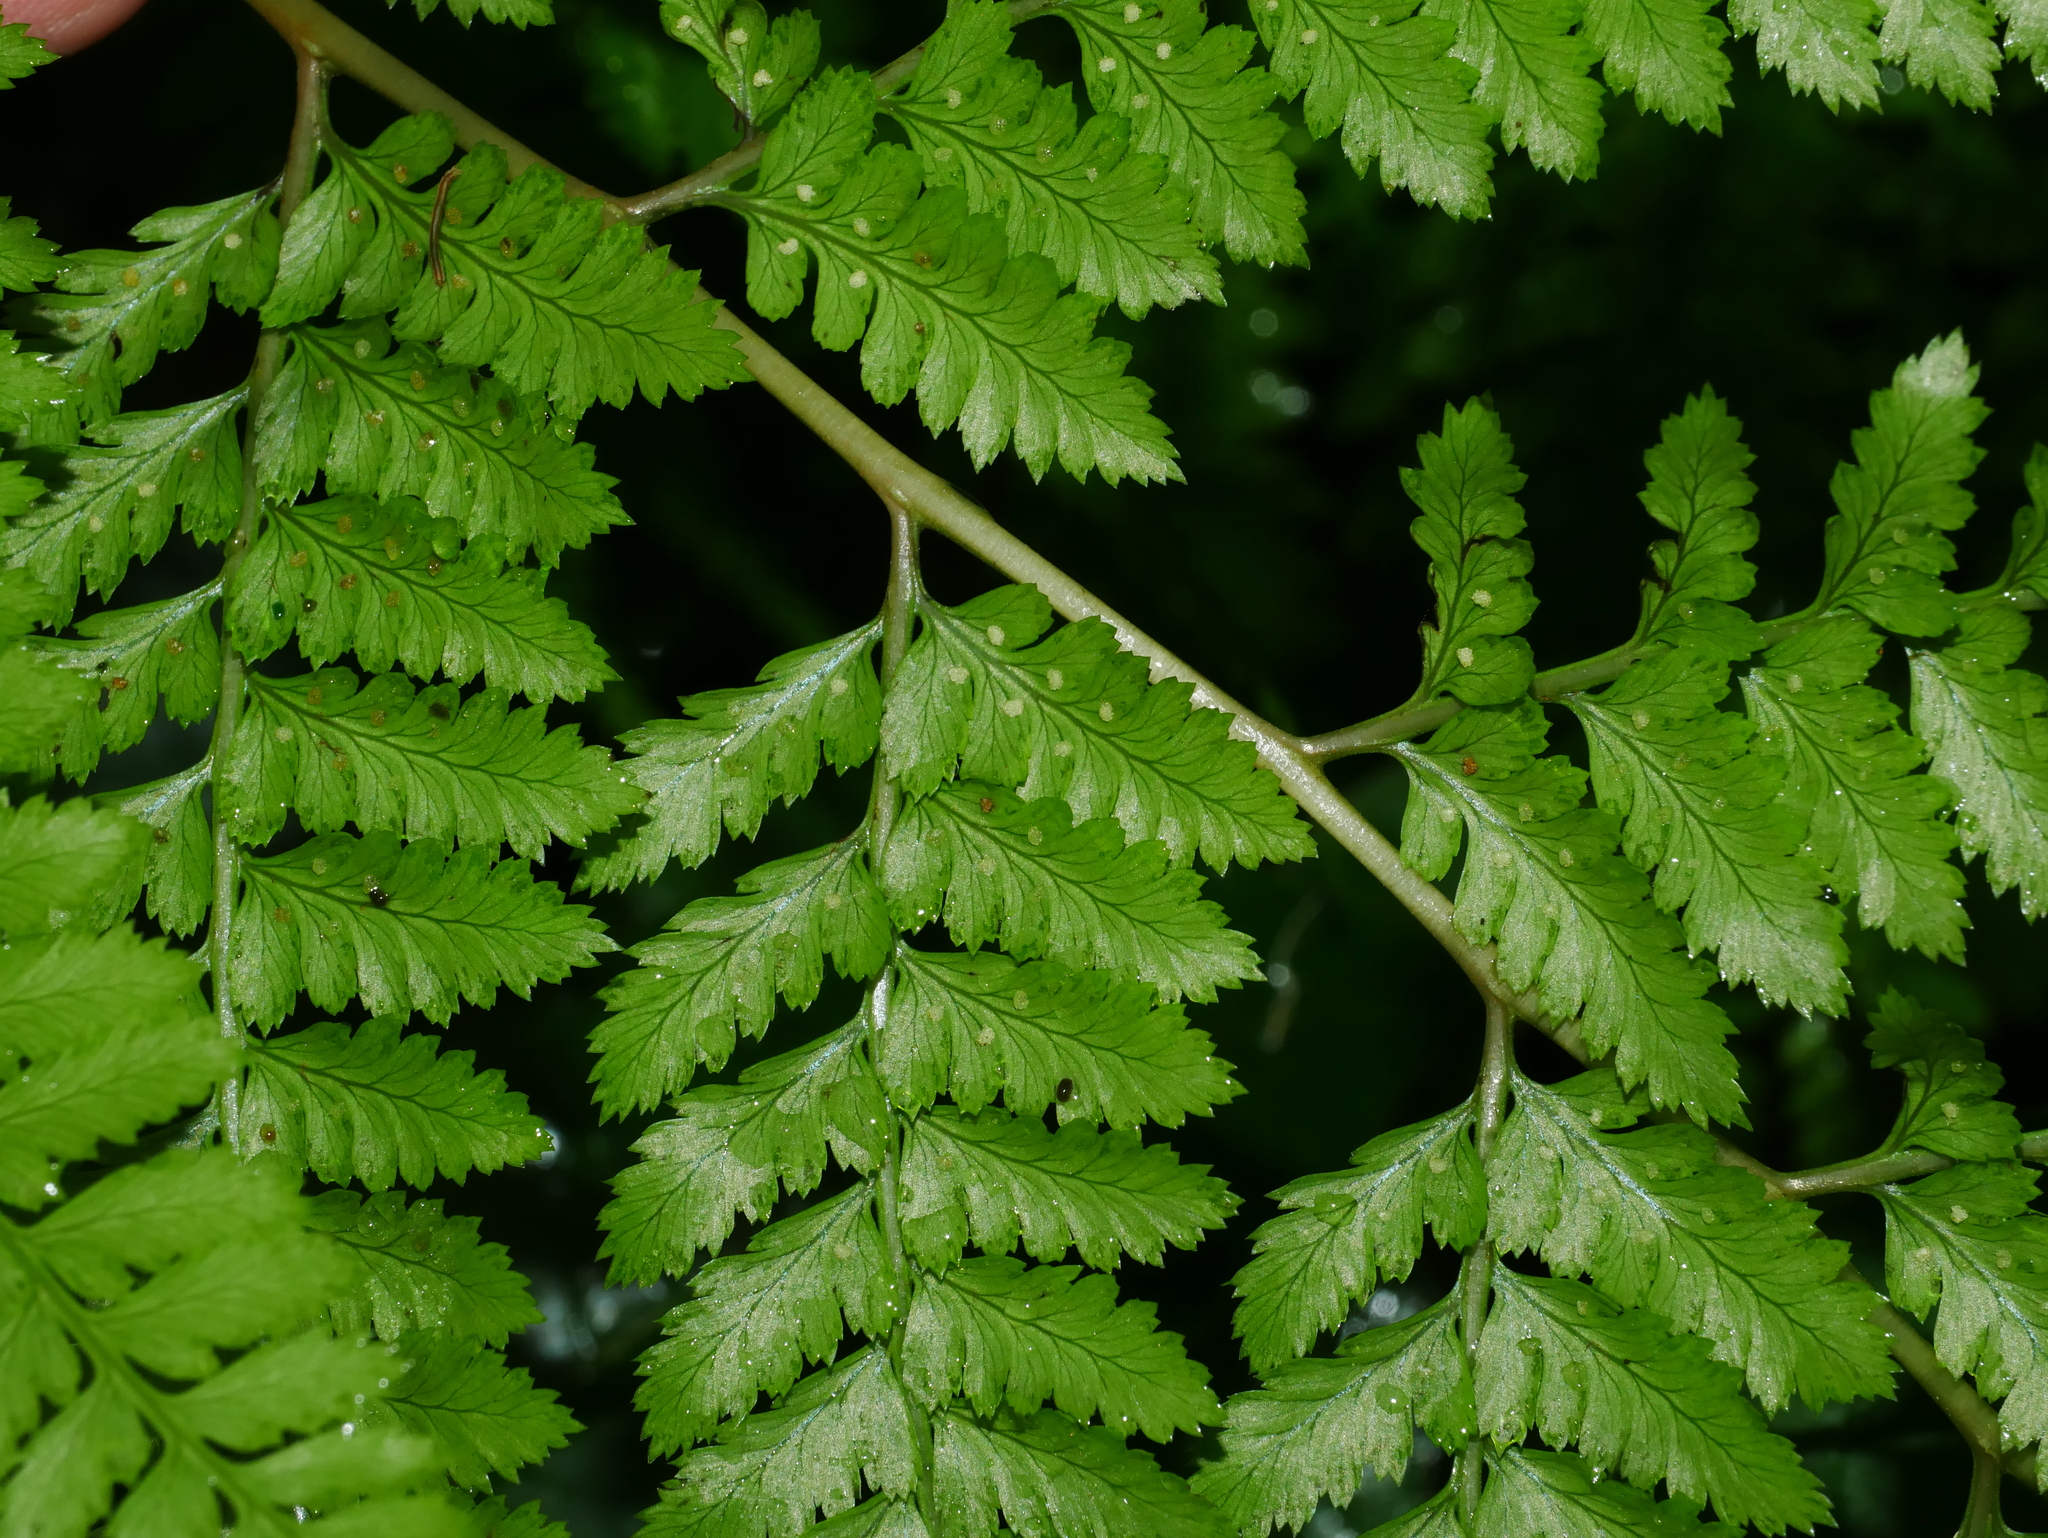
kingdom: Plantae
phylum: Tracheophyta
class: Polypodiopsida
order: Polypodiales
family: Athyriaceae
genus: Athyrium
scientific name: Athyrium drepanopteron
